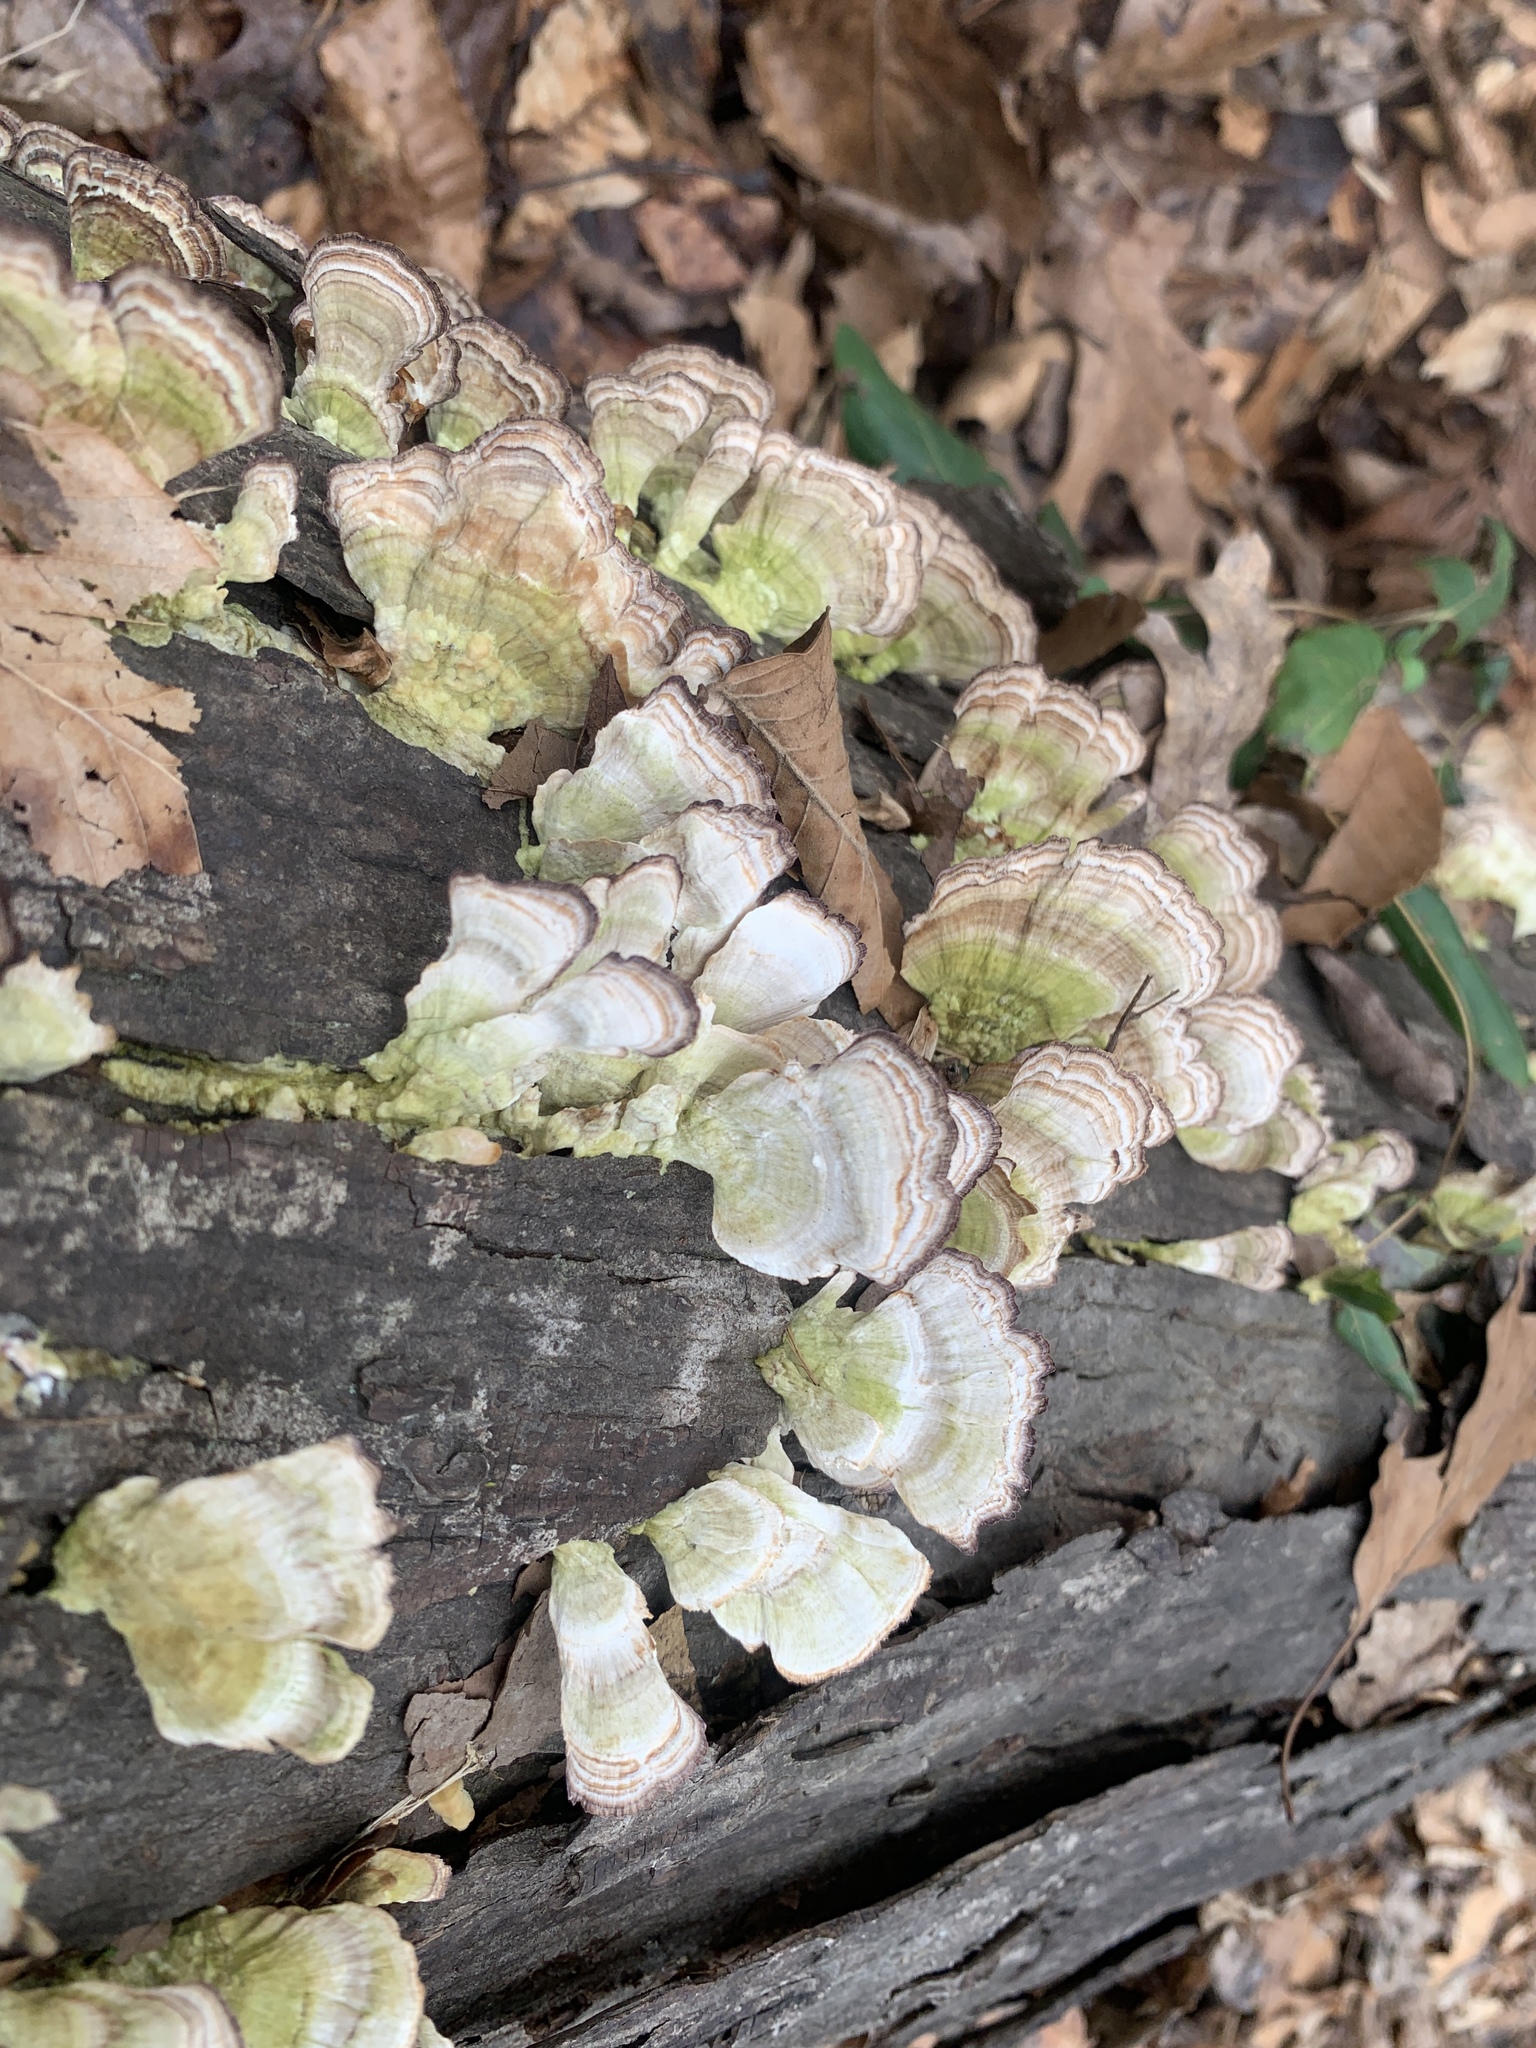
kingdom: Fungi
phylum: Basidiomycota
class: Agaricomycetes
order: Hymenochaetales
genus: Trichaptum
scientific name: Trichaptum biforme
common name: Violet-toothed polypore
